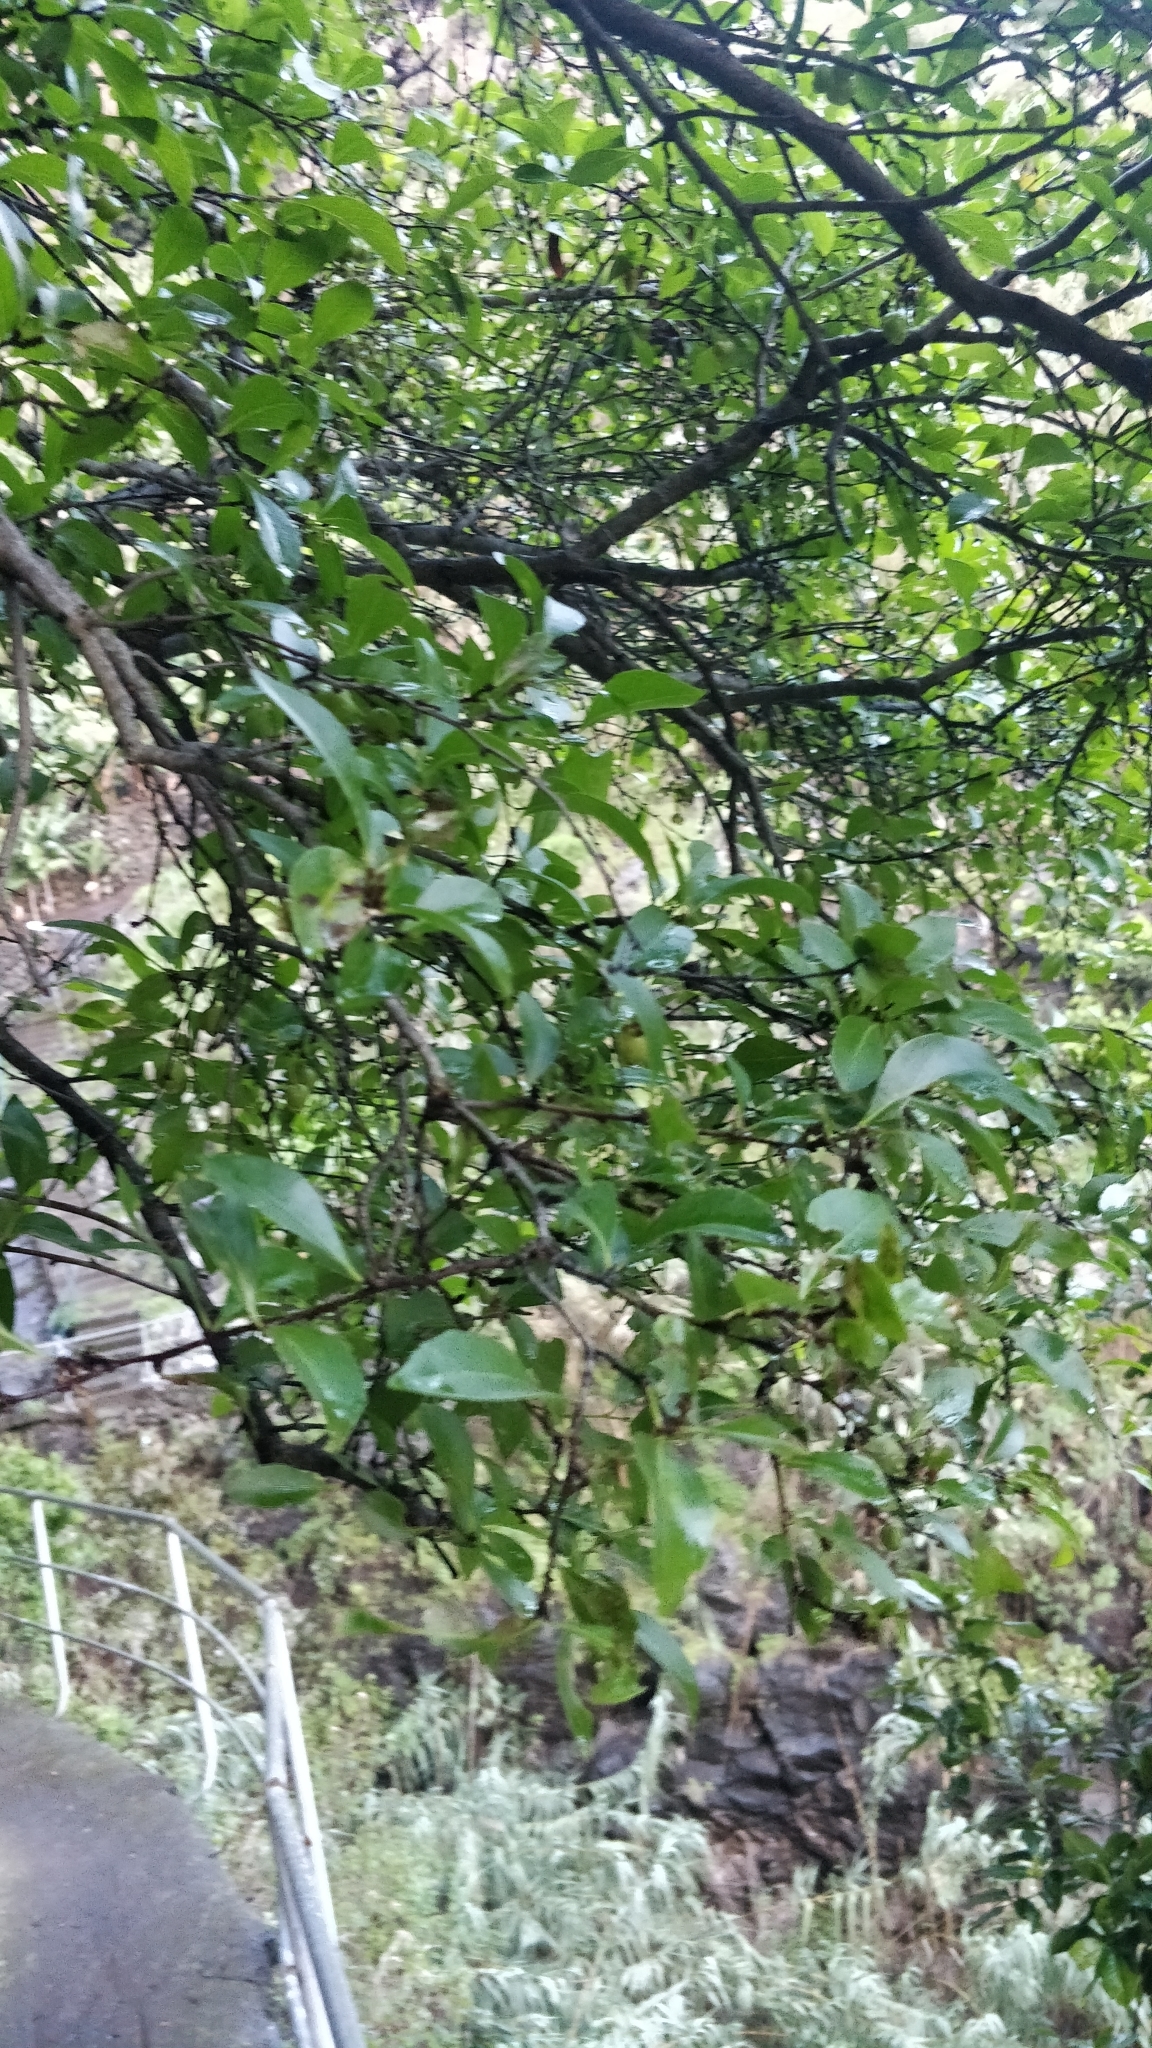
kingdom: Plantae
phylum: Tracheophyta
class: Magnoliopsida
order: Celastrales
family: Celastraceae
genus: Gymnosporia
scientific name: Gymnosporia dryandri
